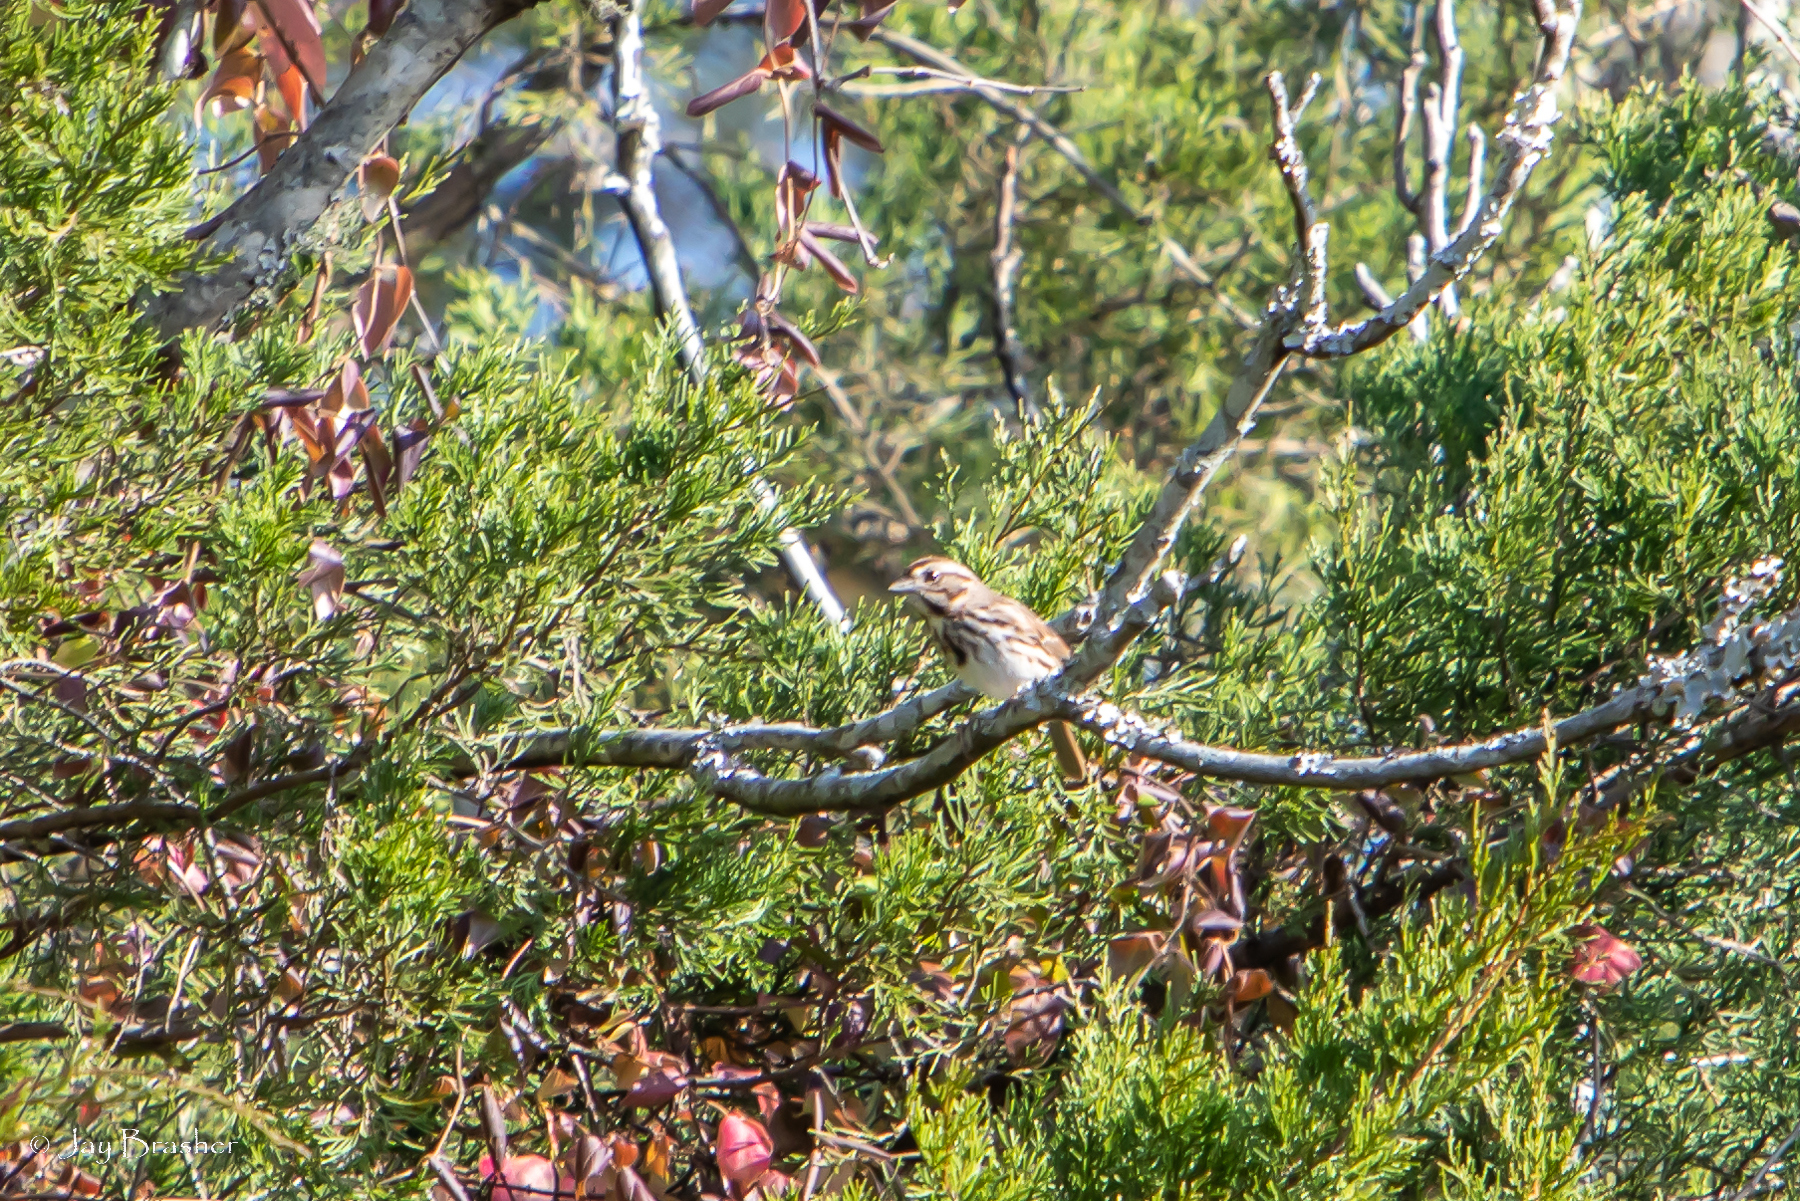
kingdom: Animalia
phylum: Chordata
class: Aves
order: Passeriformes
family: Passerellidae
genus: Melospiza
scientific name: Melospiza melodia
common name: Song sparrow
